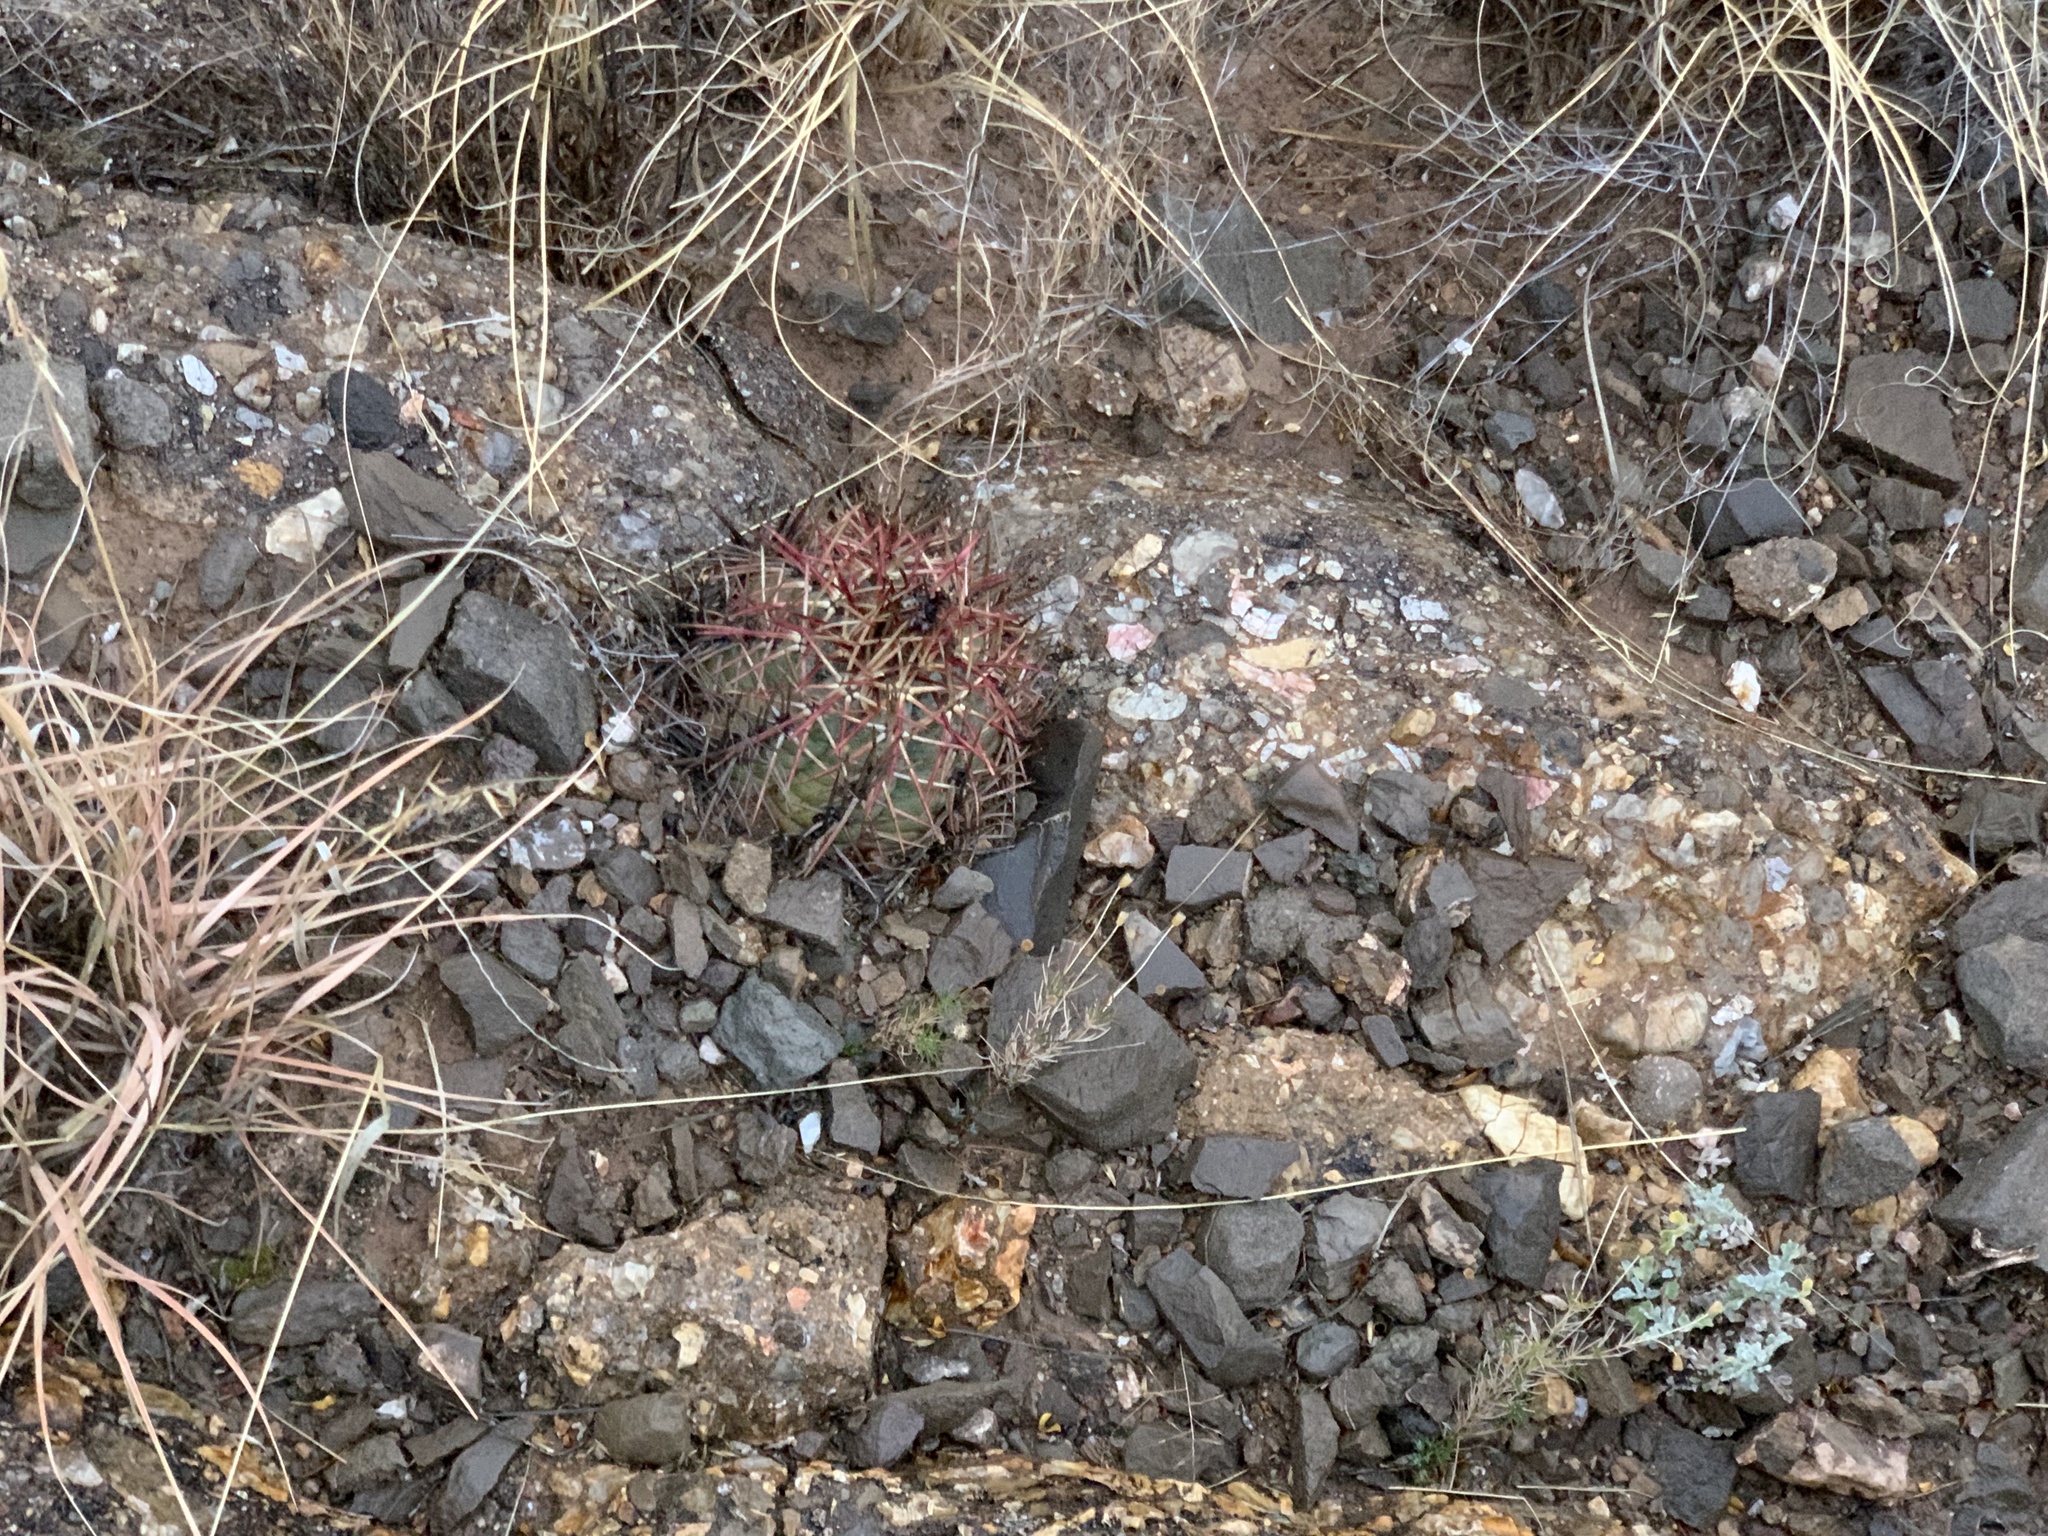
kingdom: Plantae
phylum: Tracheophyta
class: Magnoliopsida
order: Caryophyllales
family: Cactaceae
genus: Echinocactus
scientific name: Echinocactus horizonthalonius
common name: Devilshead
